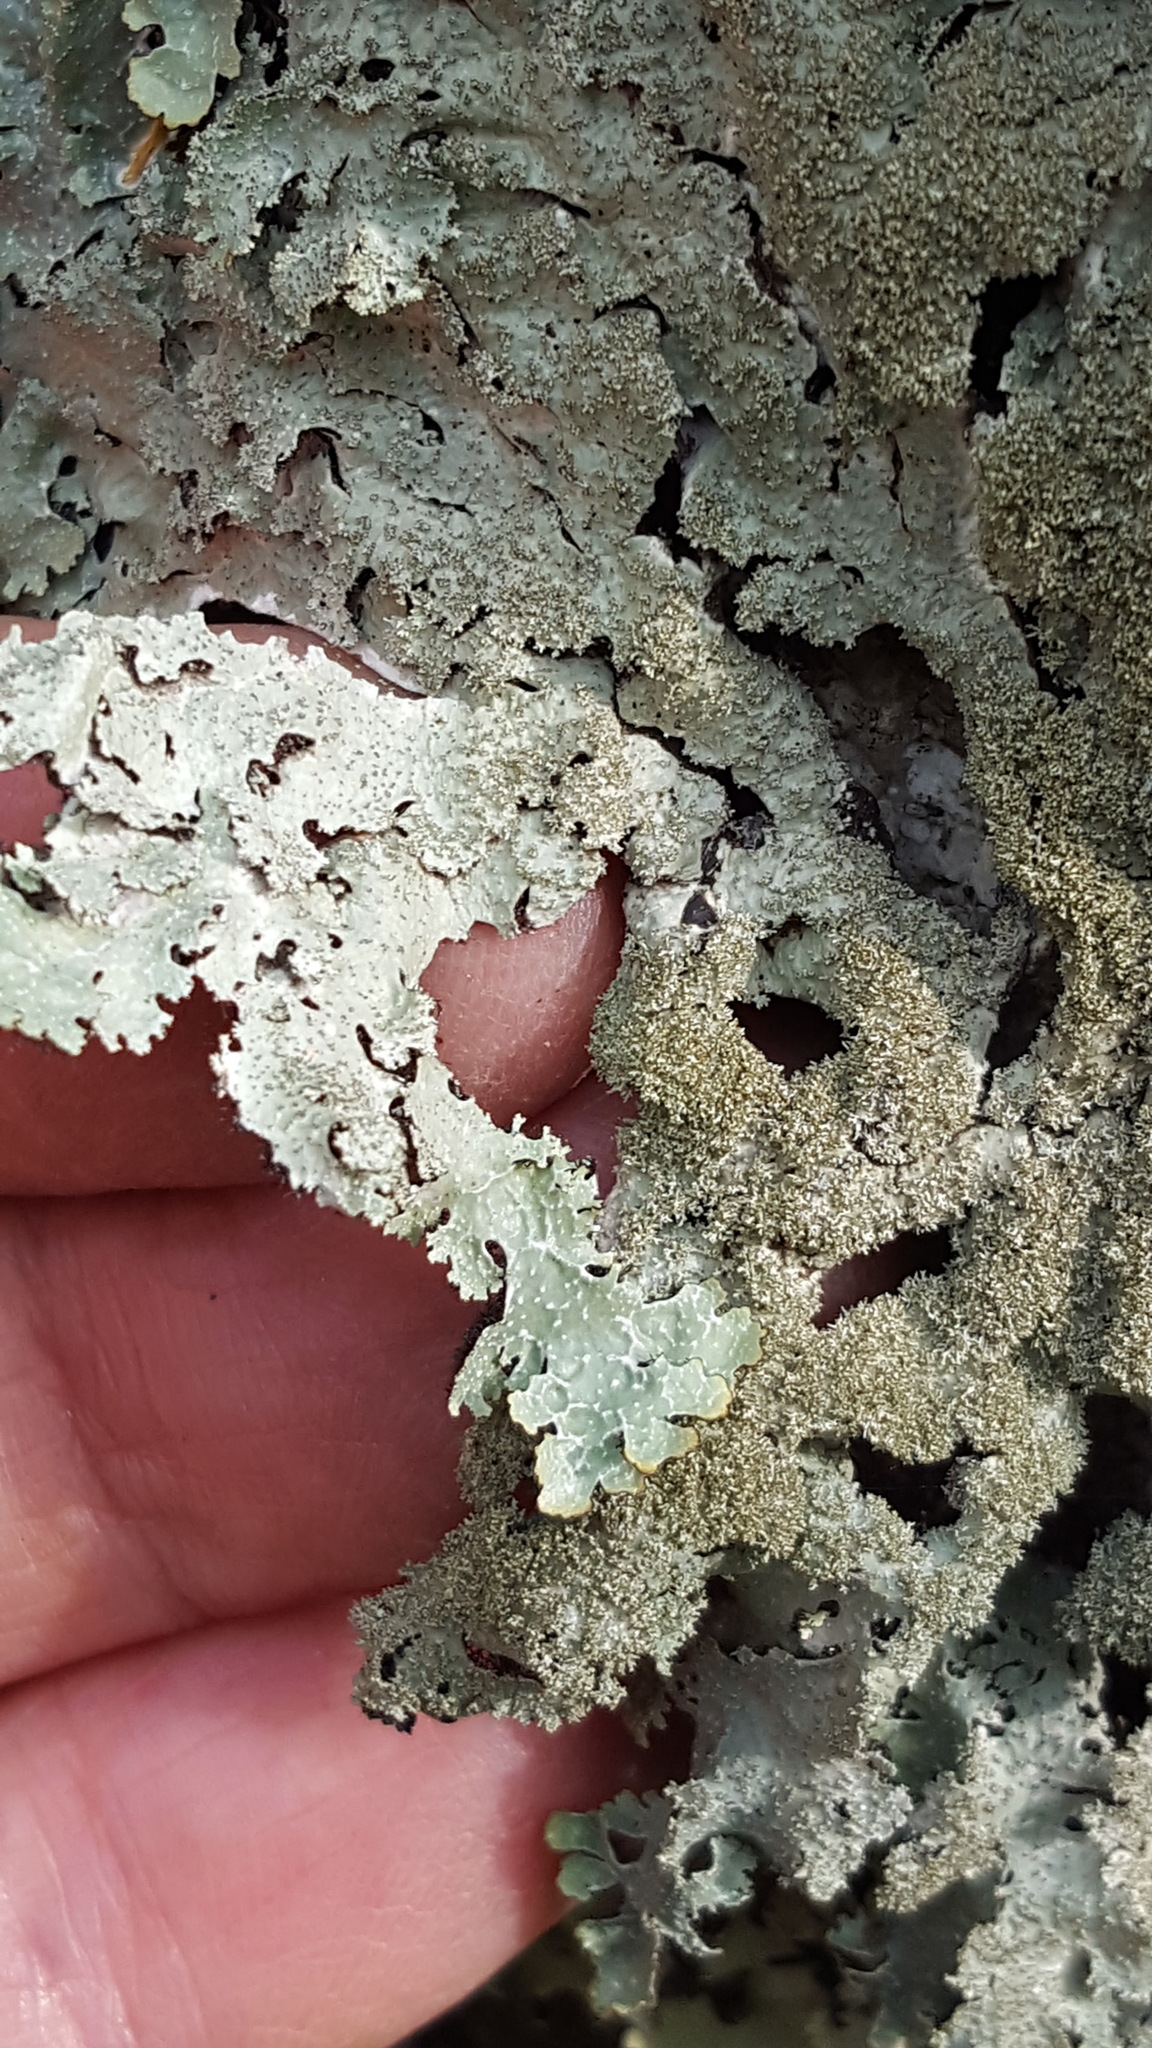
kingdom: Fungi
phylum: Ascomycota
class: Lecanoromycetes
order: Lecanorales
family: Parmeliaceae
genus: Punctelia
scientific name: Punctelia rudecta
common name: Rough speckled shield lichen
